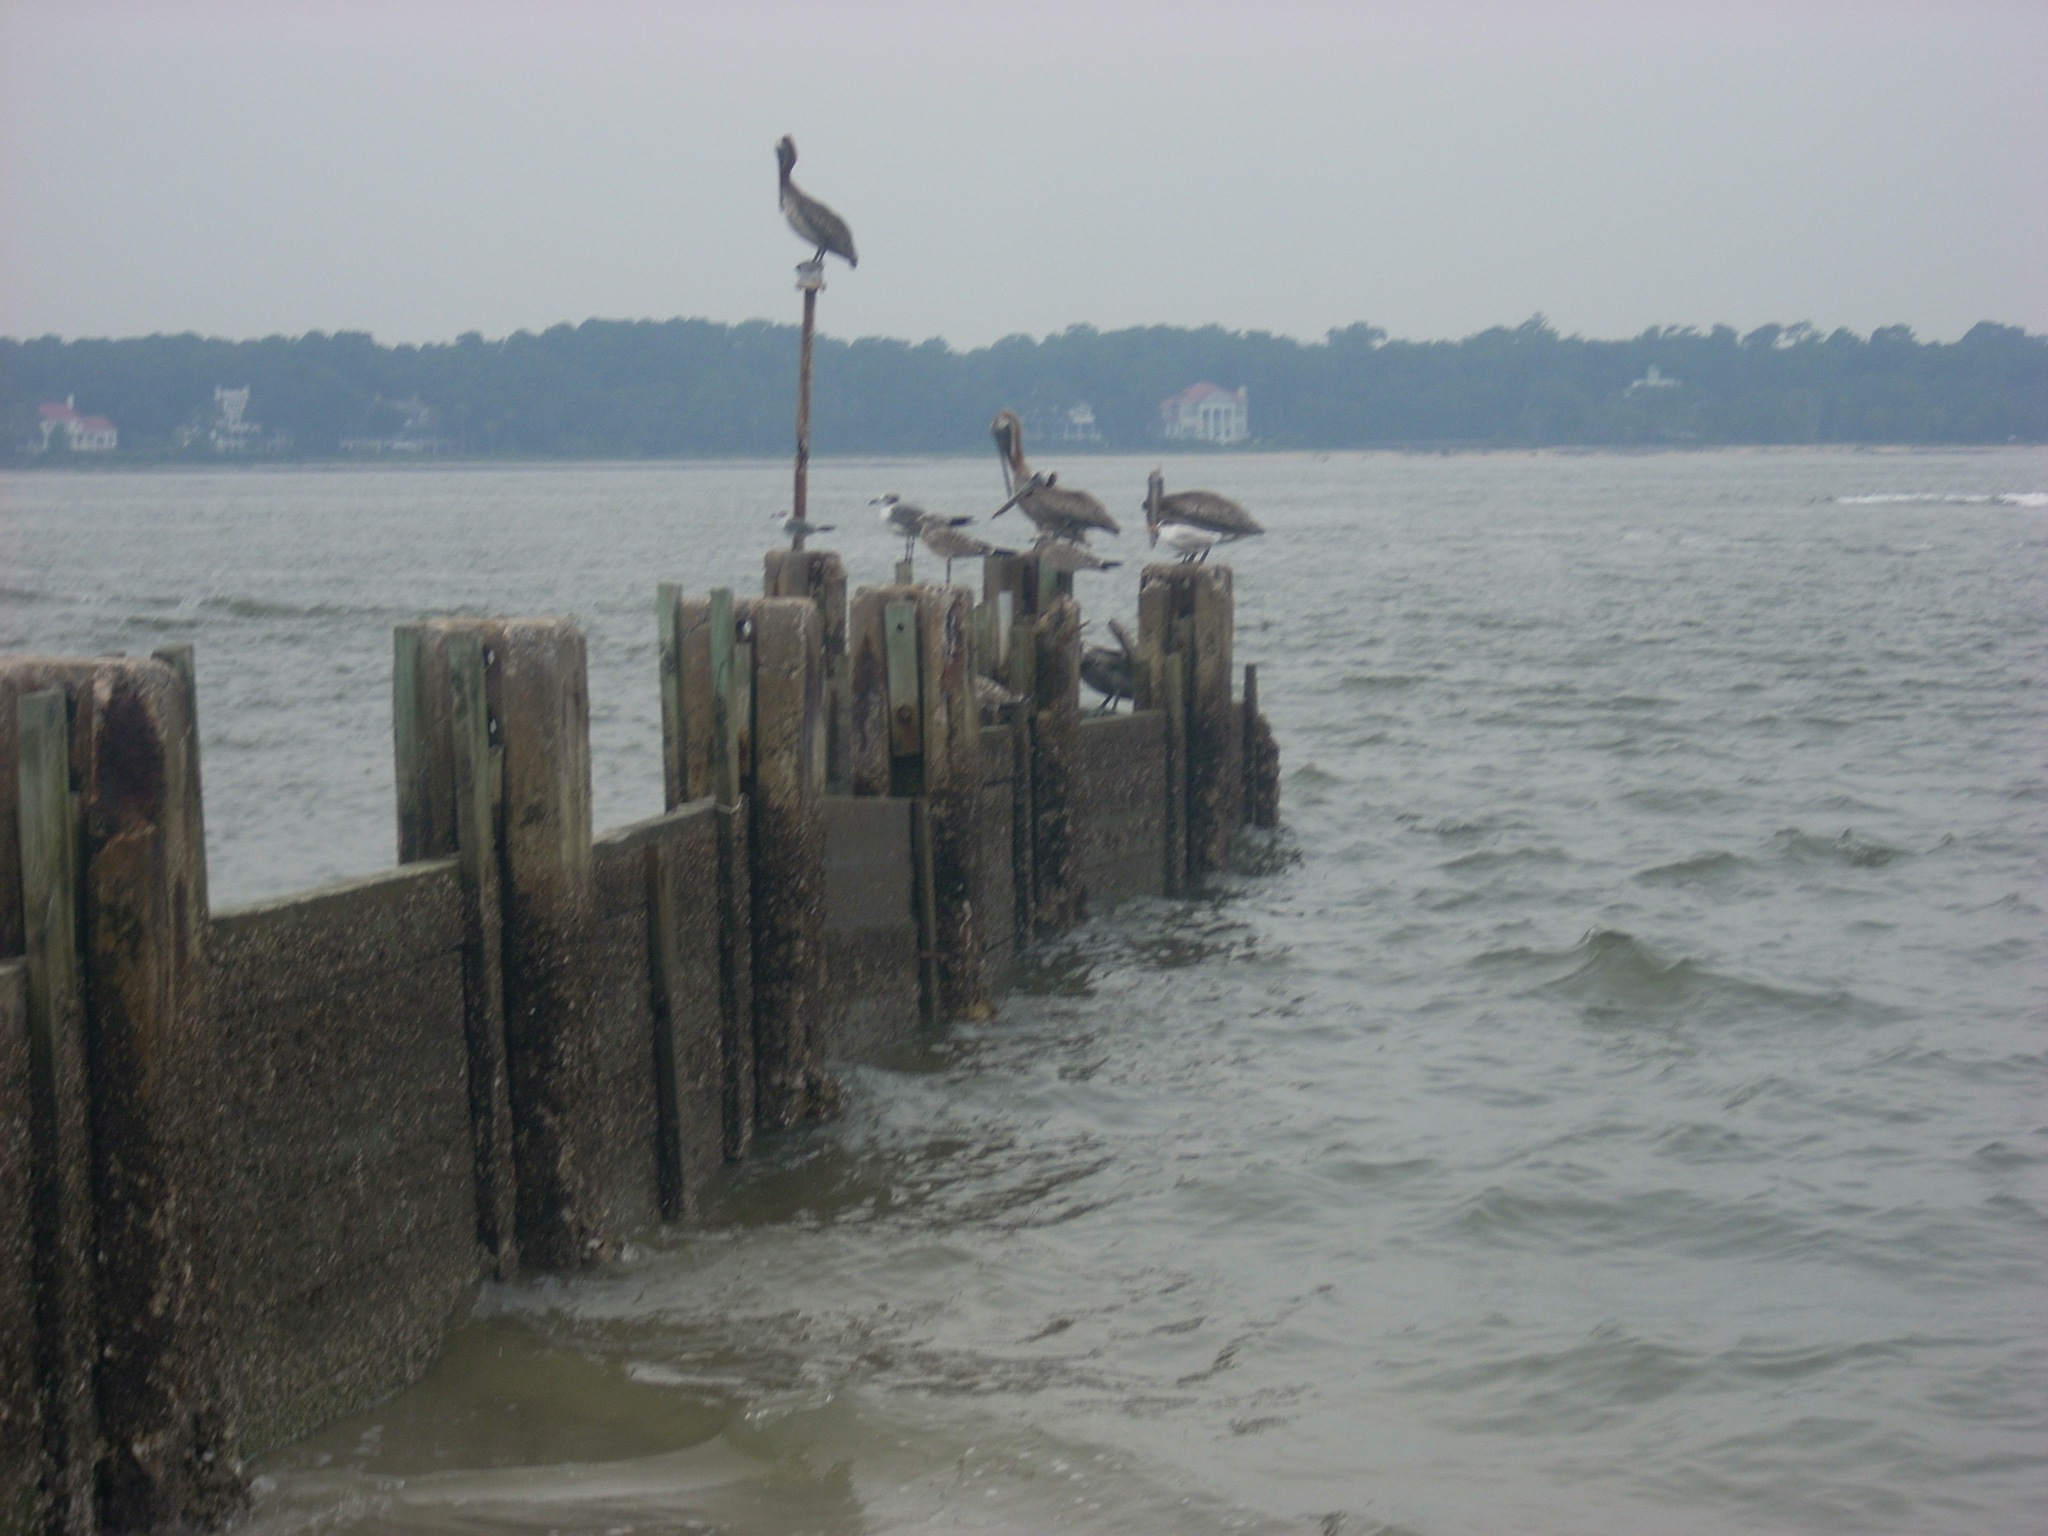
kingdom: Animalia
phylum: Chordata
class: Aves
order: Pelecaniformes
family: Pelecanidae
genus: Pelecanus
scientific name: Pelecanus occidentalis
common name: Brown pelican
